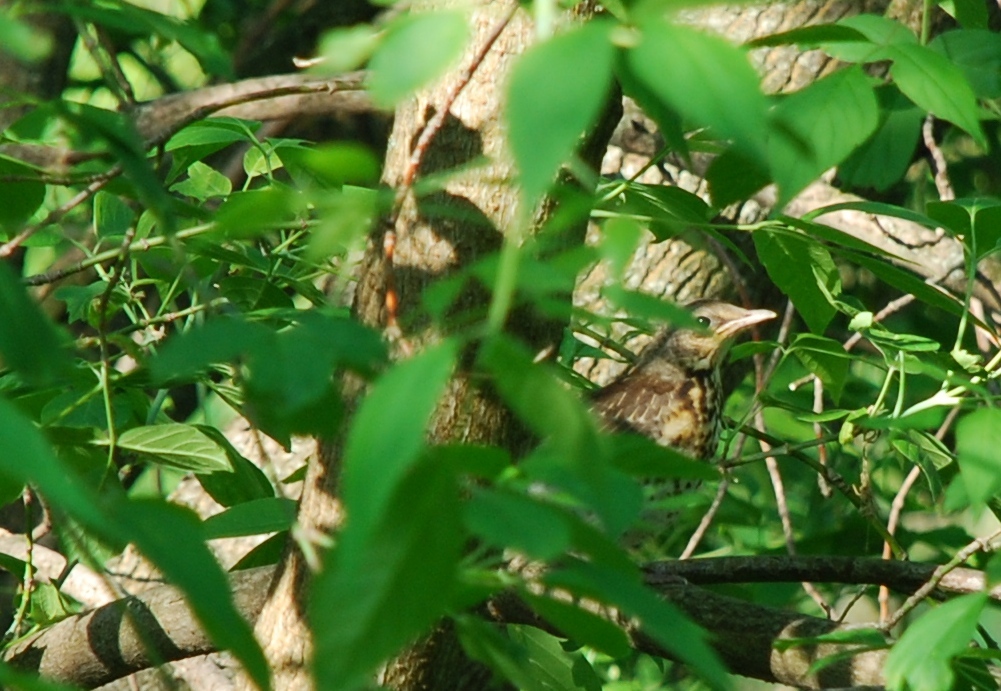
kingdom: Animalia
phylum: Chordata
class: Aves
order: Passeriformes
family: Turdidae
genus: Turdus
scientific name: Turdus pilaris
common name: Fieldfare
